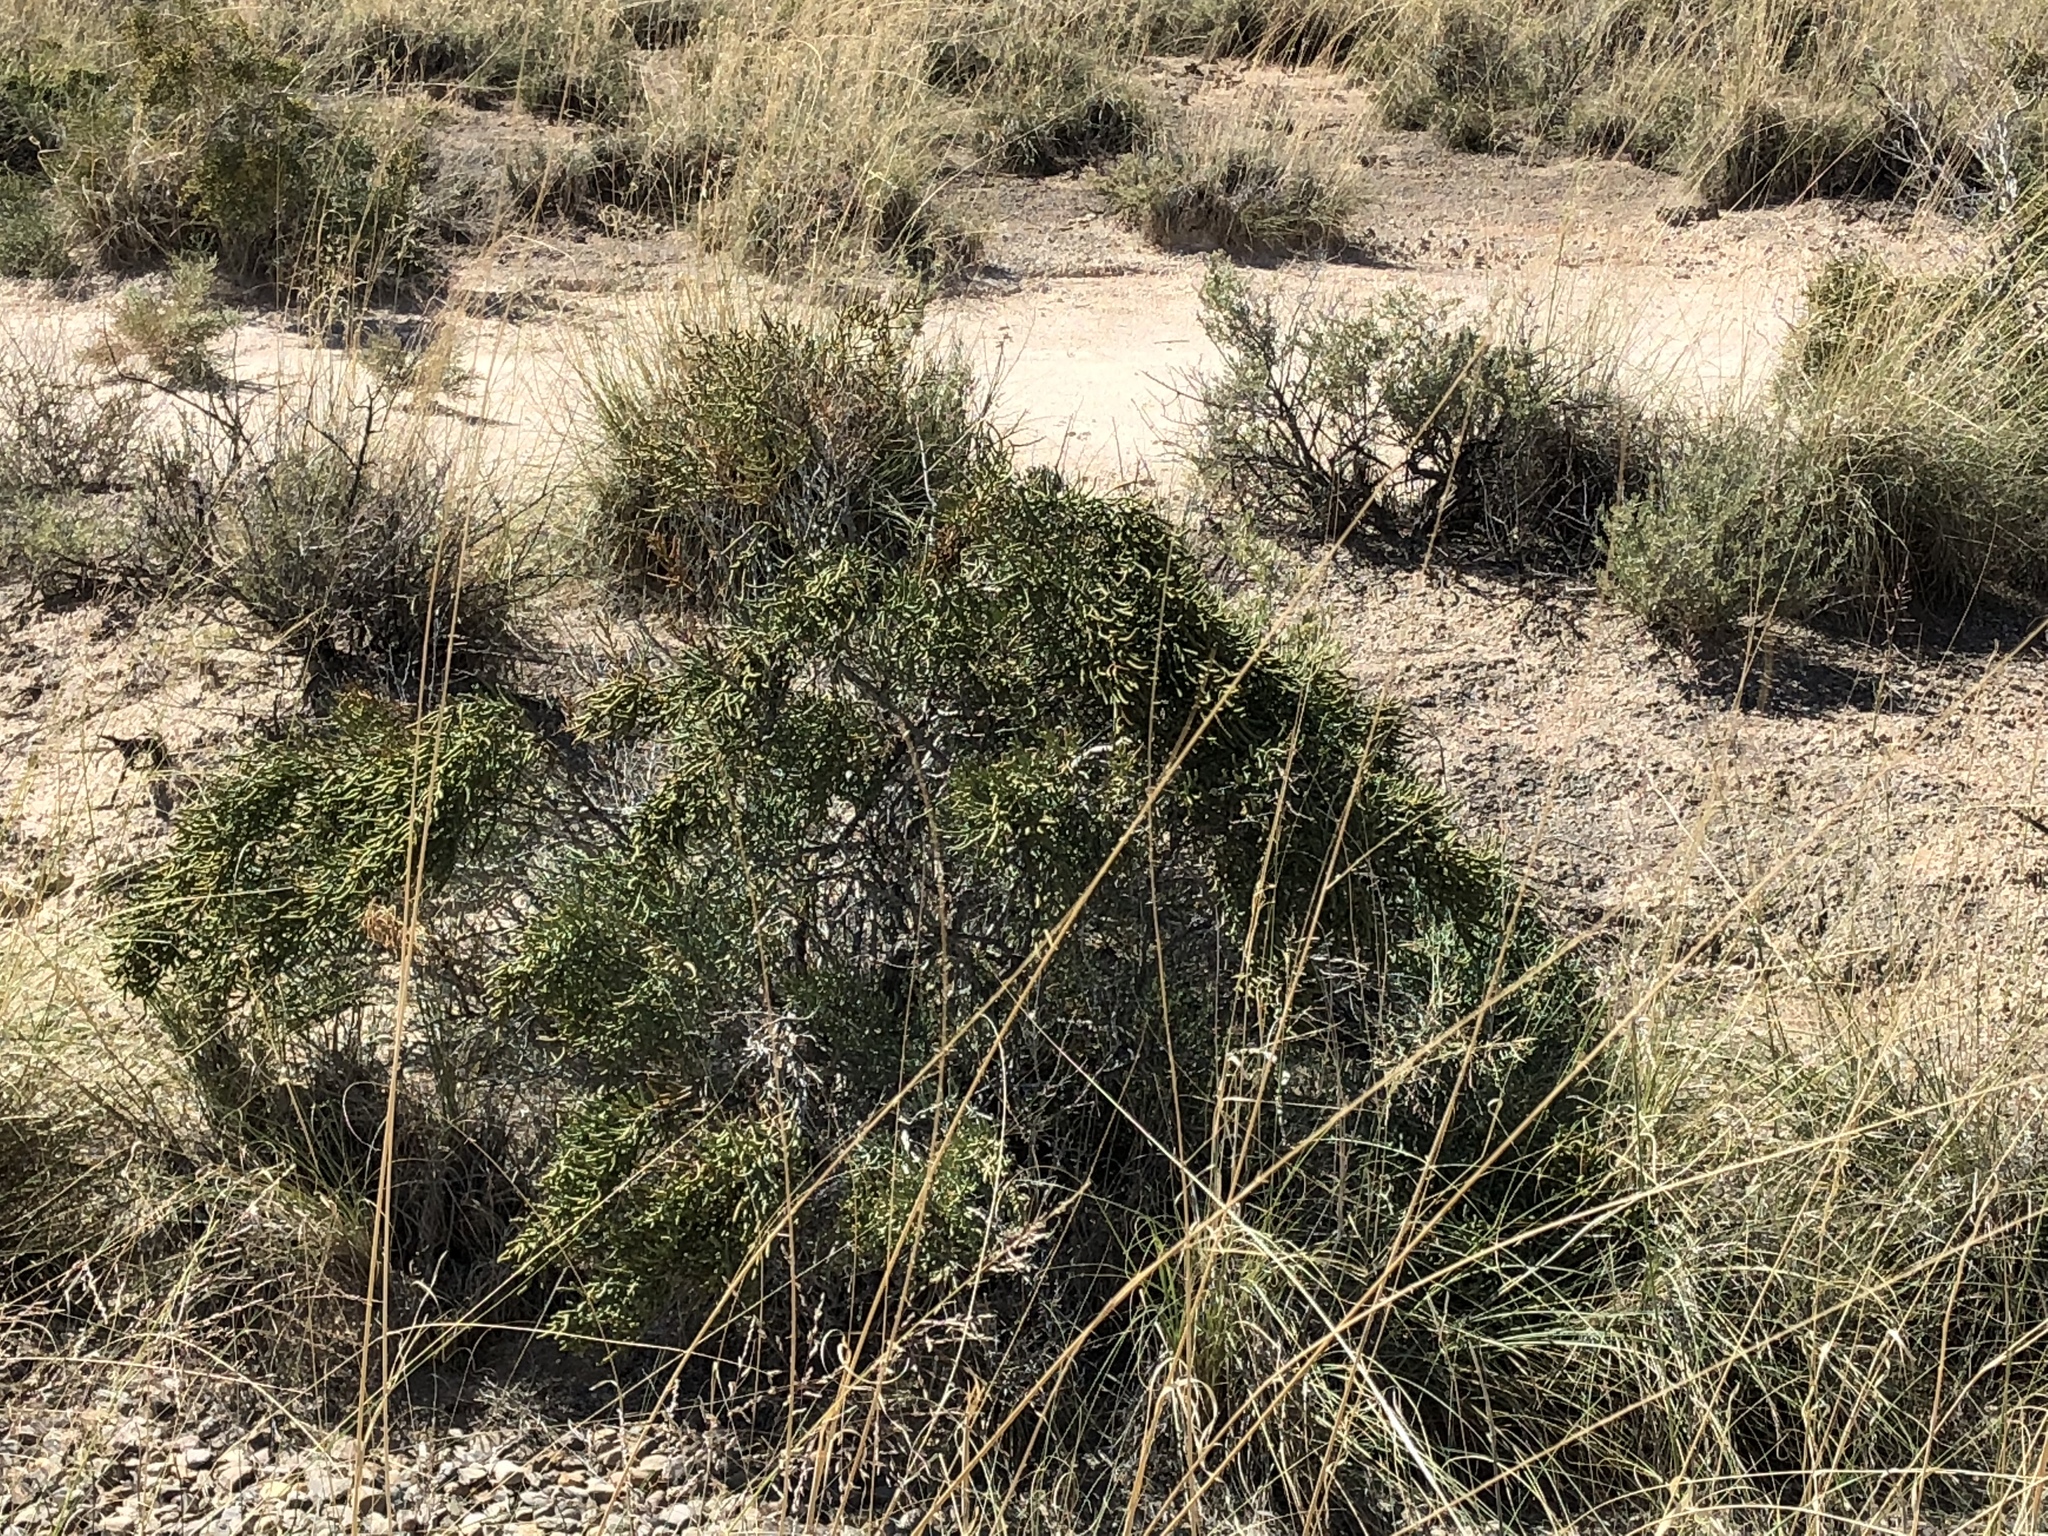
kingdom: Plantae
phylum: Tracheophyta
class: Magnoliopsida
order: Caryophyllales
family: Amaranthaceae
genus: Allenrolfea
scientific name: Allenrolfea occidentalis
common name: Iodine-bush
